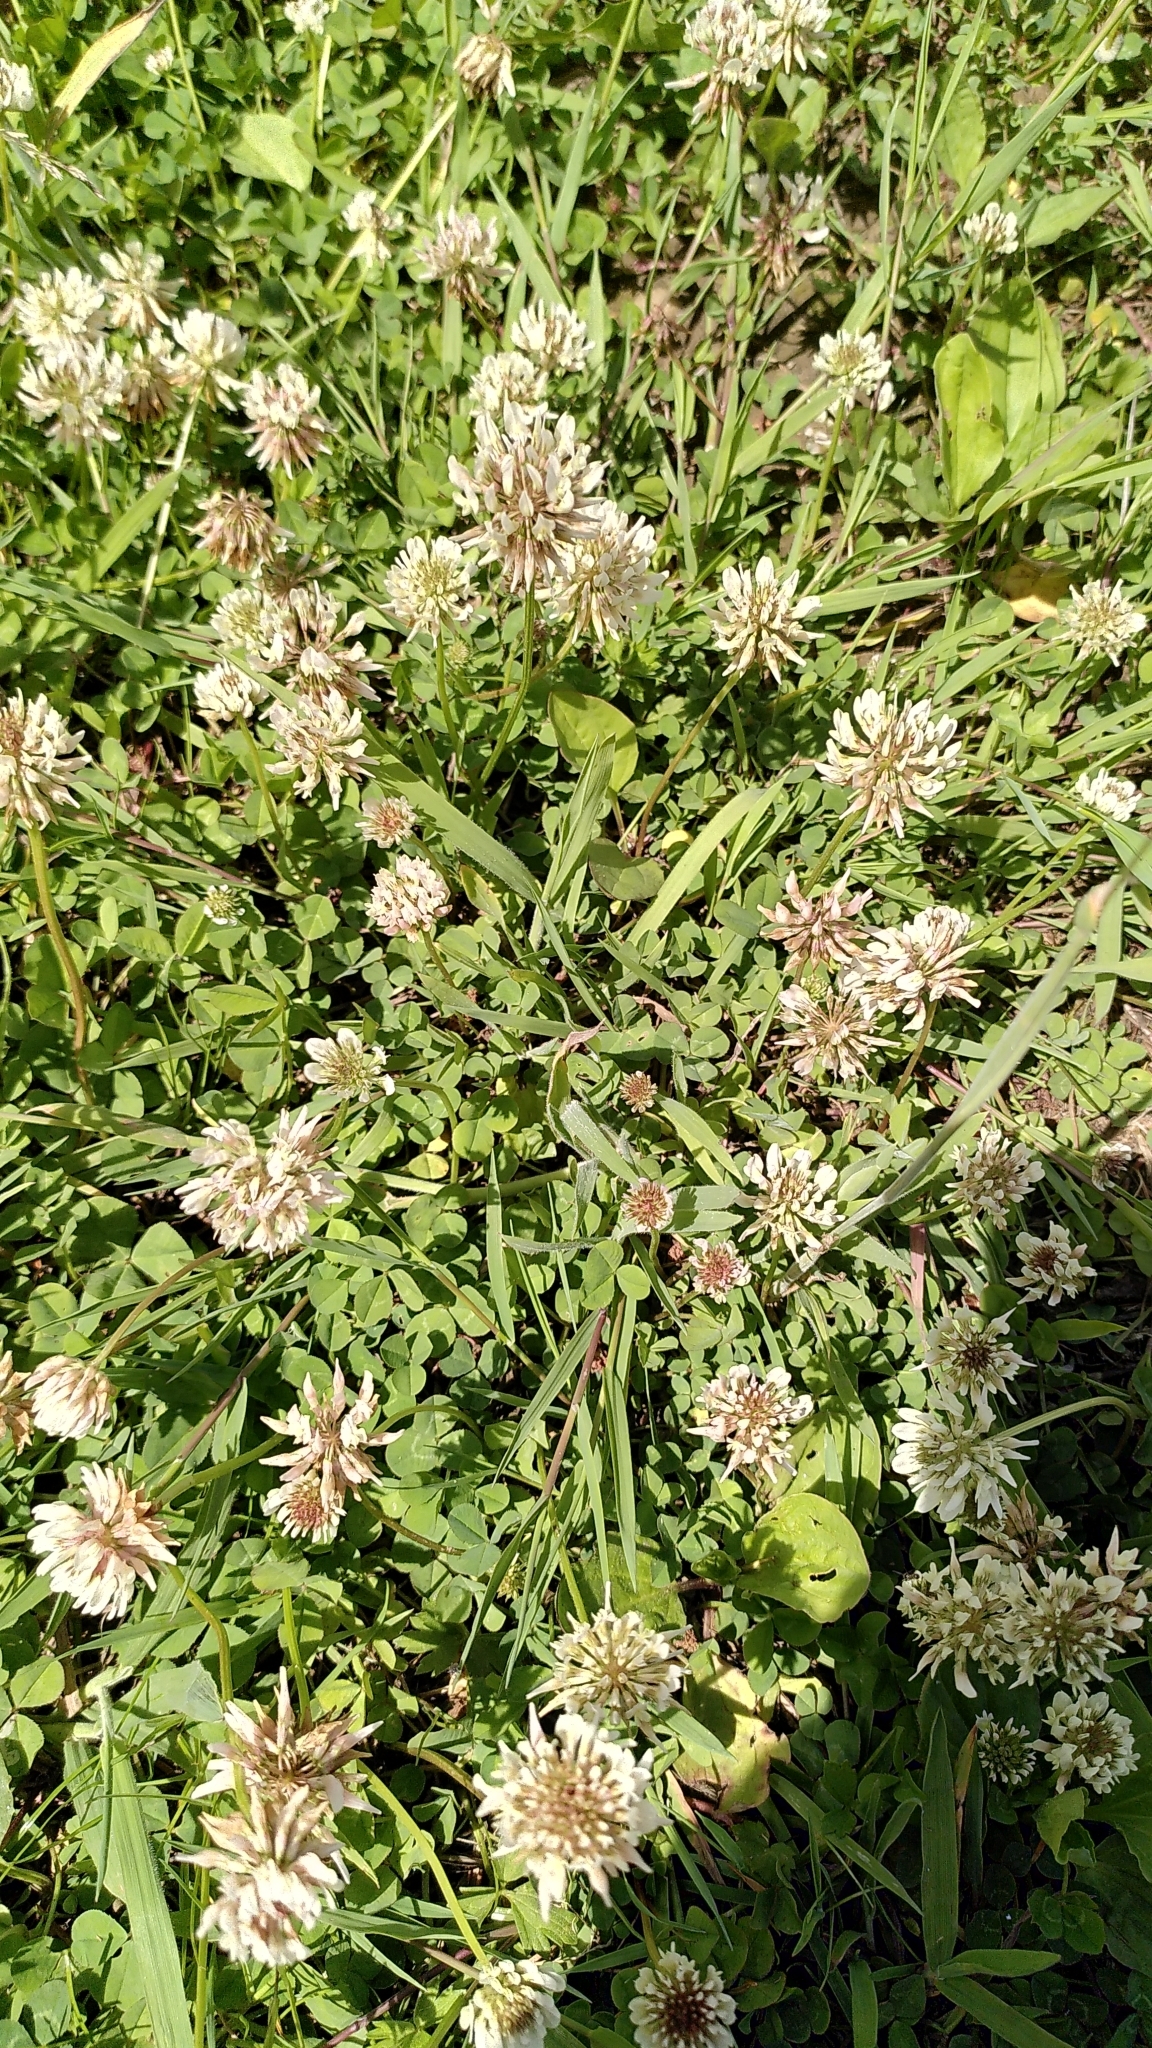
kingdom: Plantae
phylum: Tracheophyta
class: Magnoliopsida
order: Fabales
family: Fabaceae
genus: Trifolium
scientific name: Trifolium repens
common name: White clover
